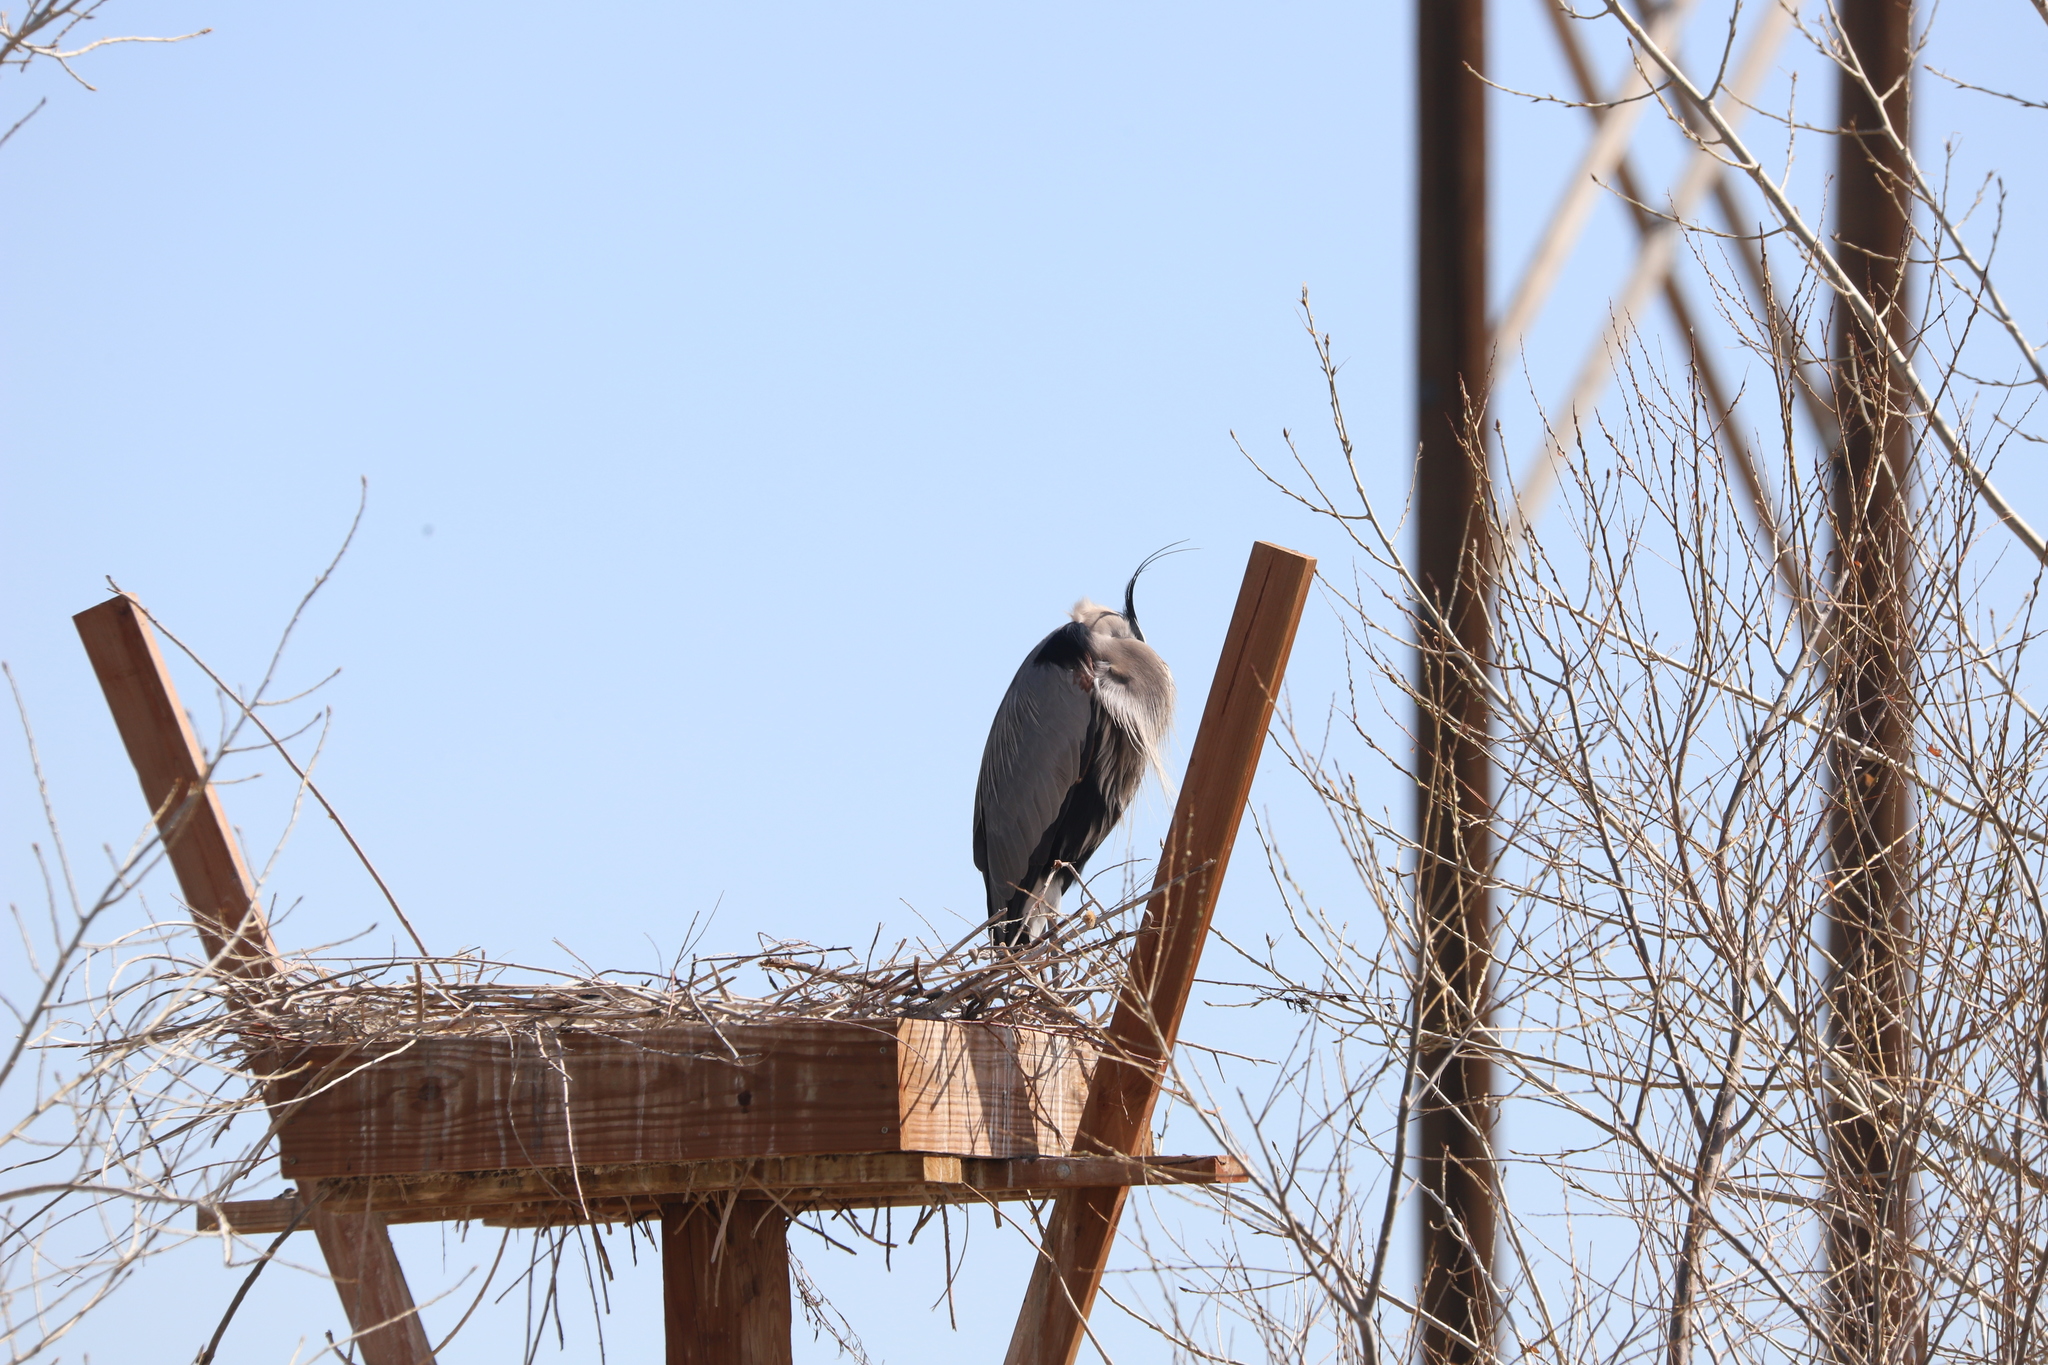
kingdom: Animalia
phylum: Chordata
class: Aves
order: Pelecaniformes
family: Ardeidae
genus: Ardea
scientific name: Ardea herodias
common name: Great blue heron
